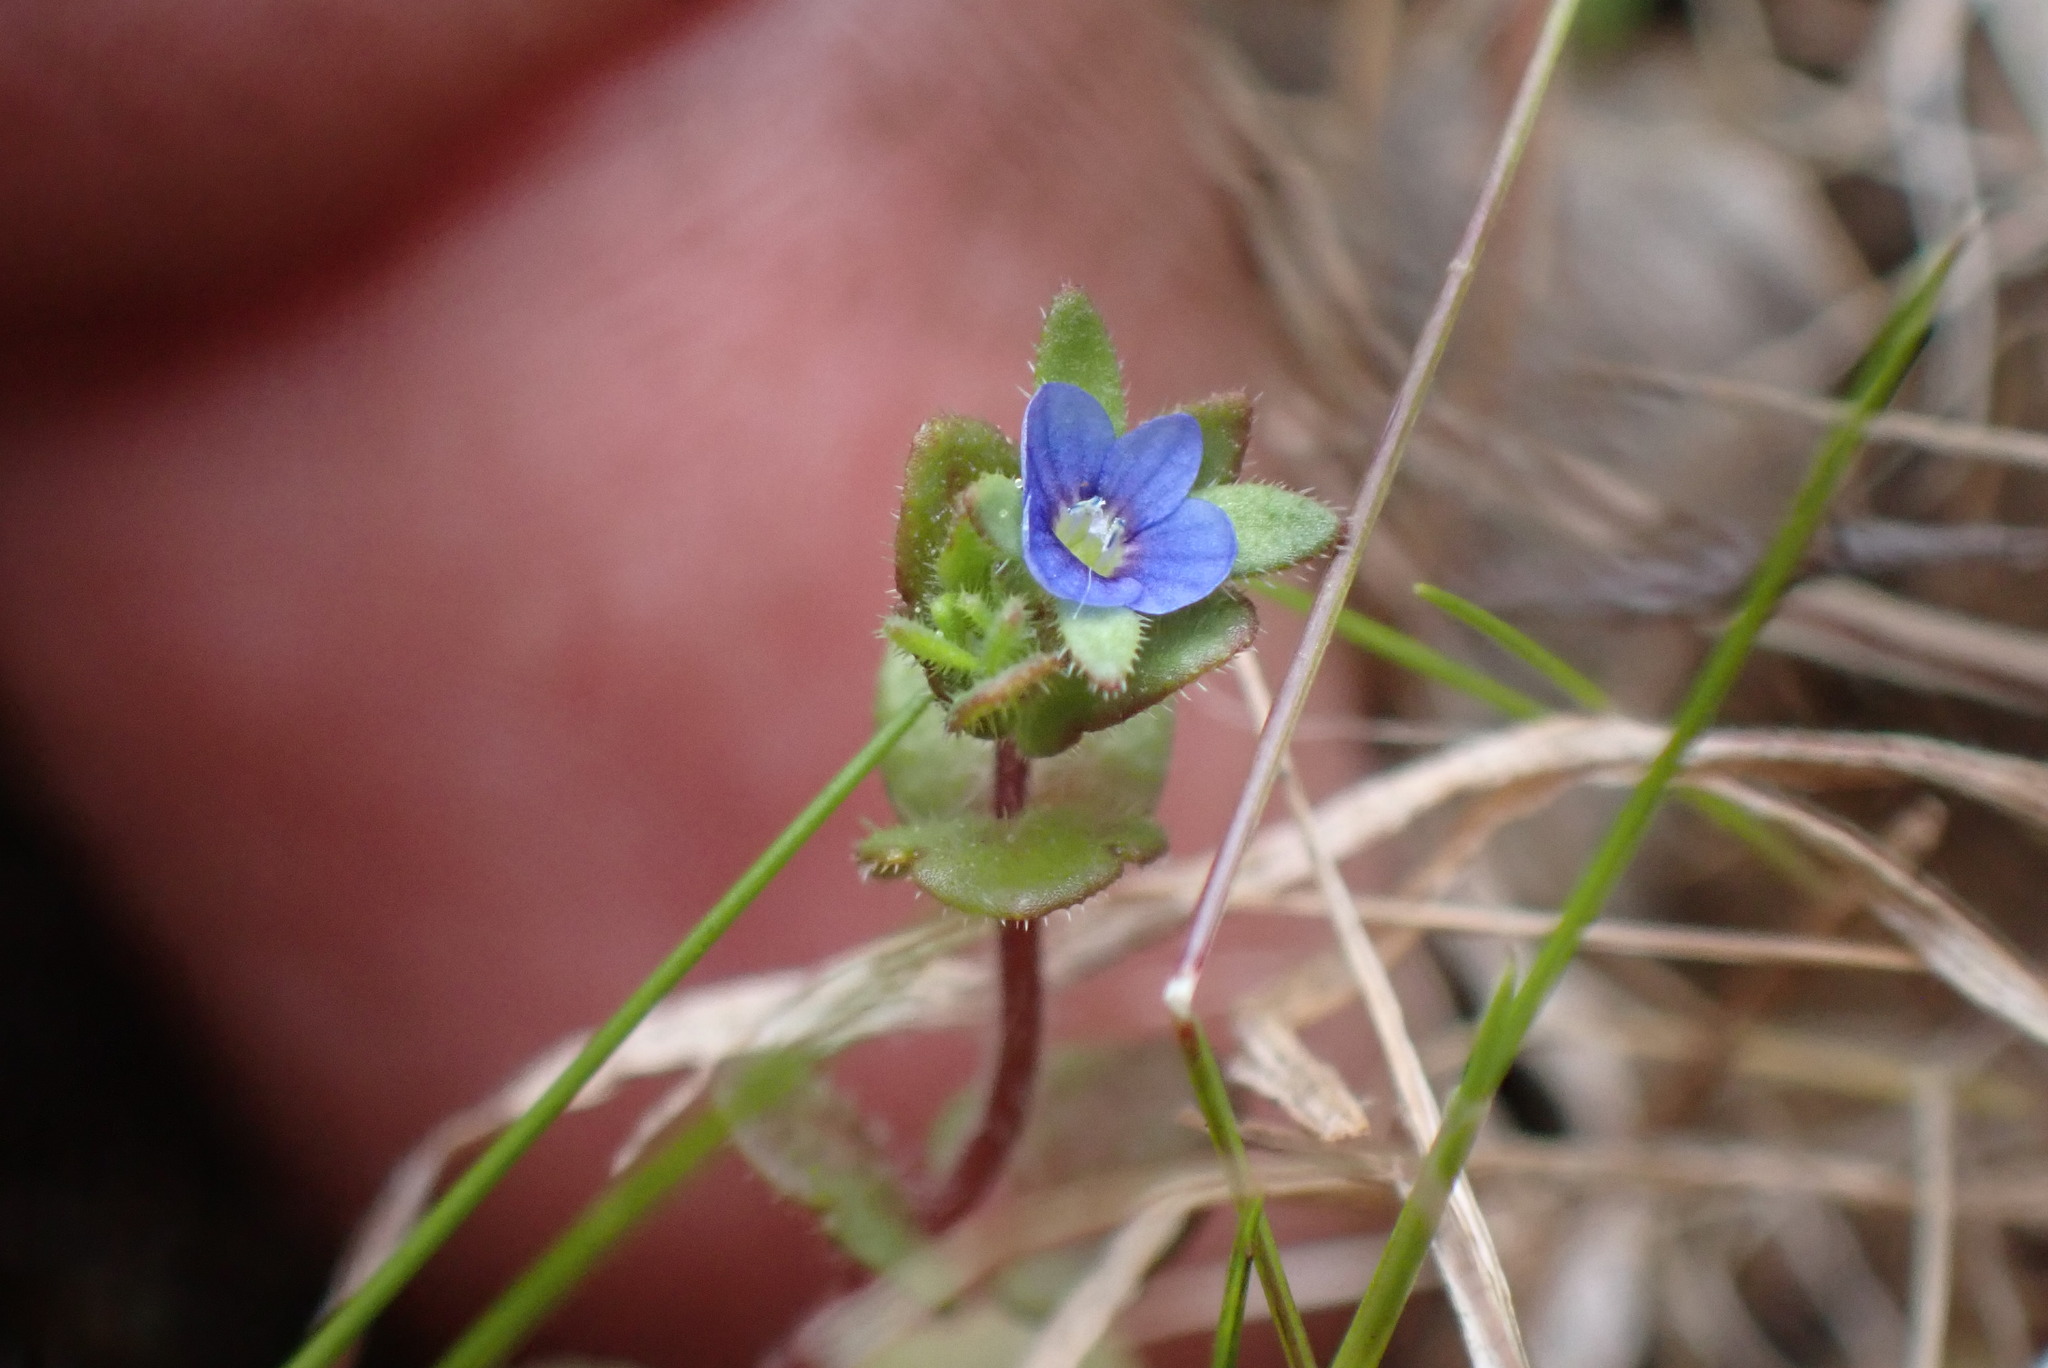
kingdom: Plantae
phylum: Tracheophyta
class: Magnoliopsida
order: Lamiales
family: Plantaginaceae
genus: Veronica
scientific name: Veronica arvensis
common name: Corn speedwell
